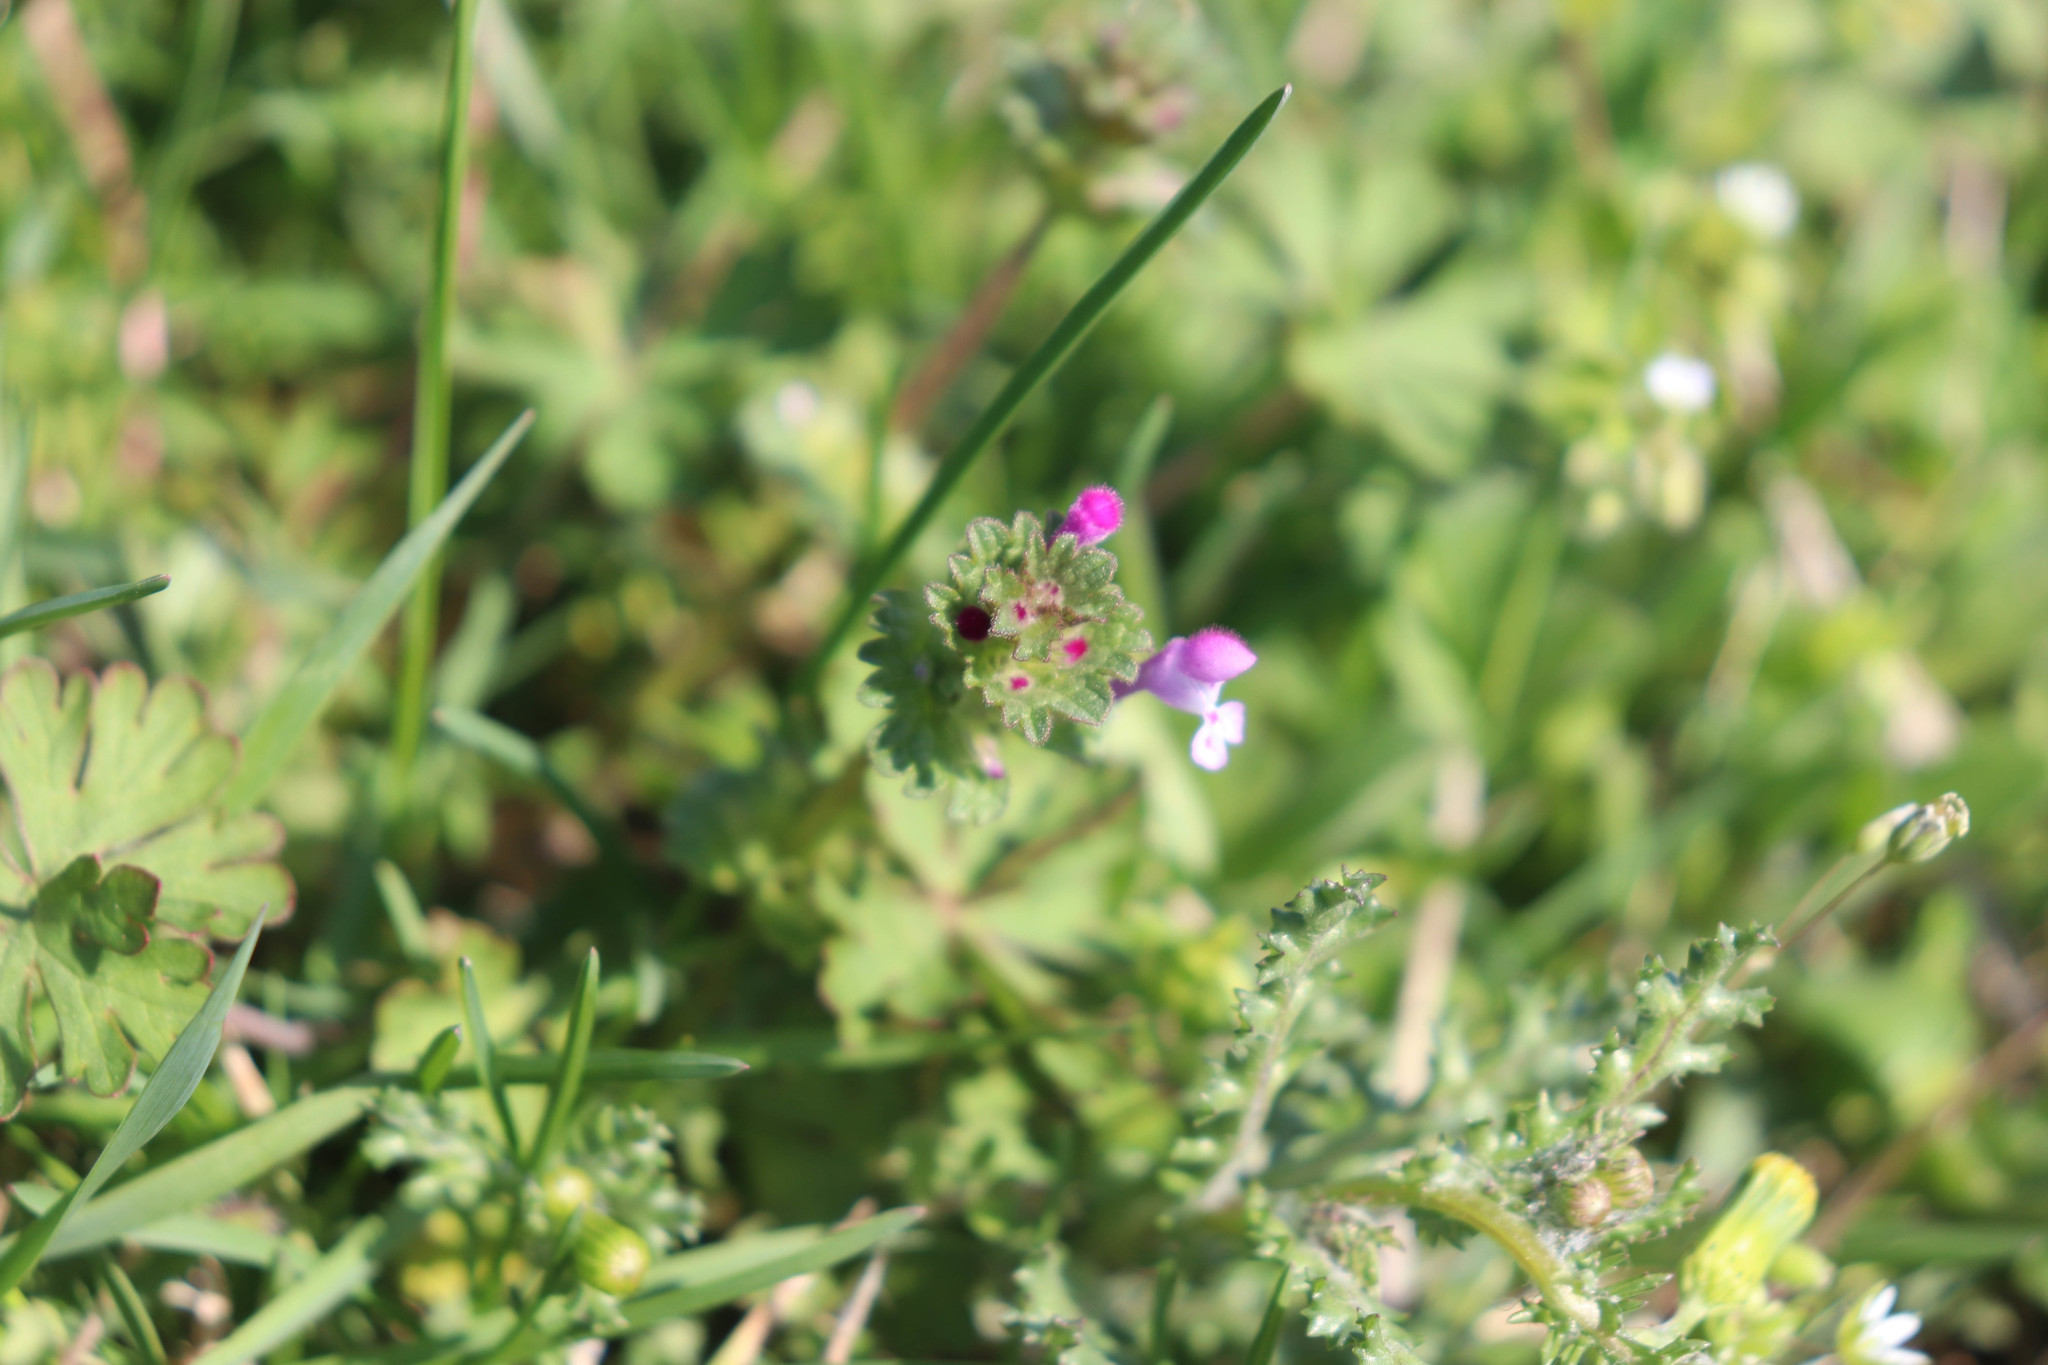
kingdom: Plantae
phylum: Tracheophyta
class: Magnoliopsida
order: Lamiales
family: Lamiaceae
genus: Lamium
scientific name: Lamium amplexicaule
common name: Henbit dead-nettle
